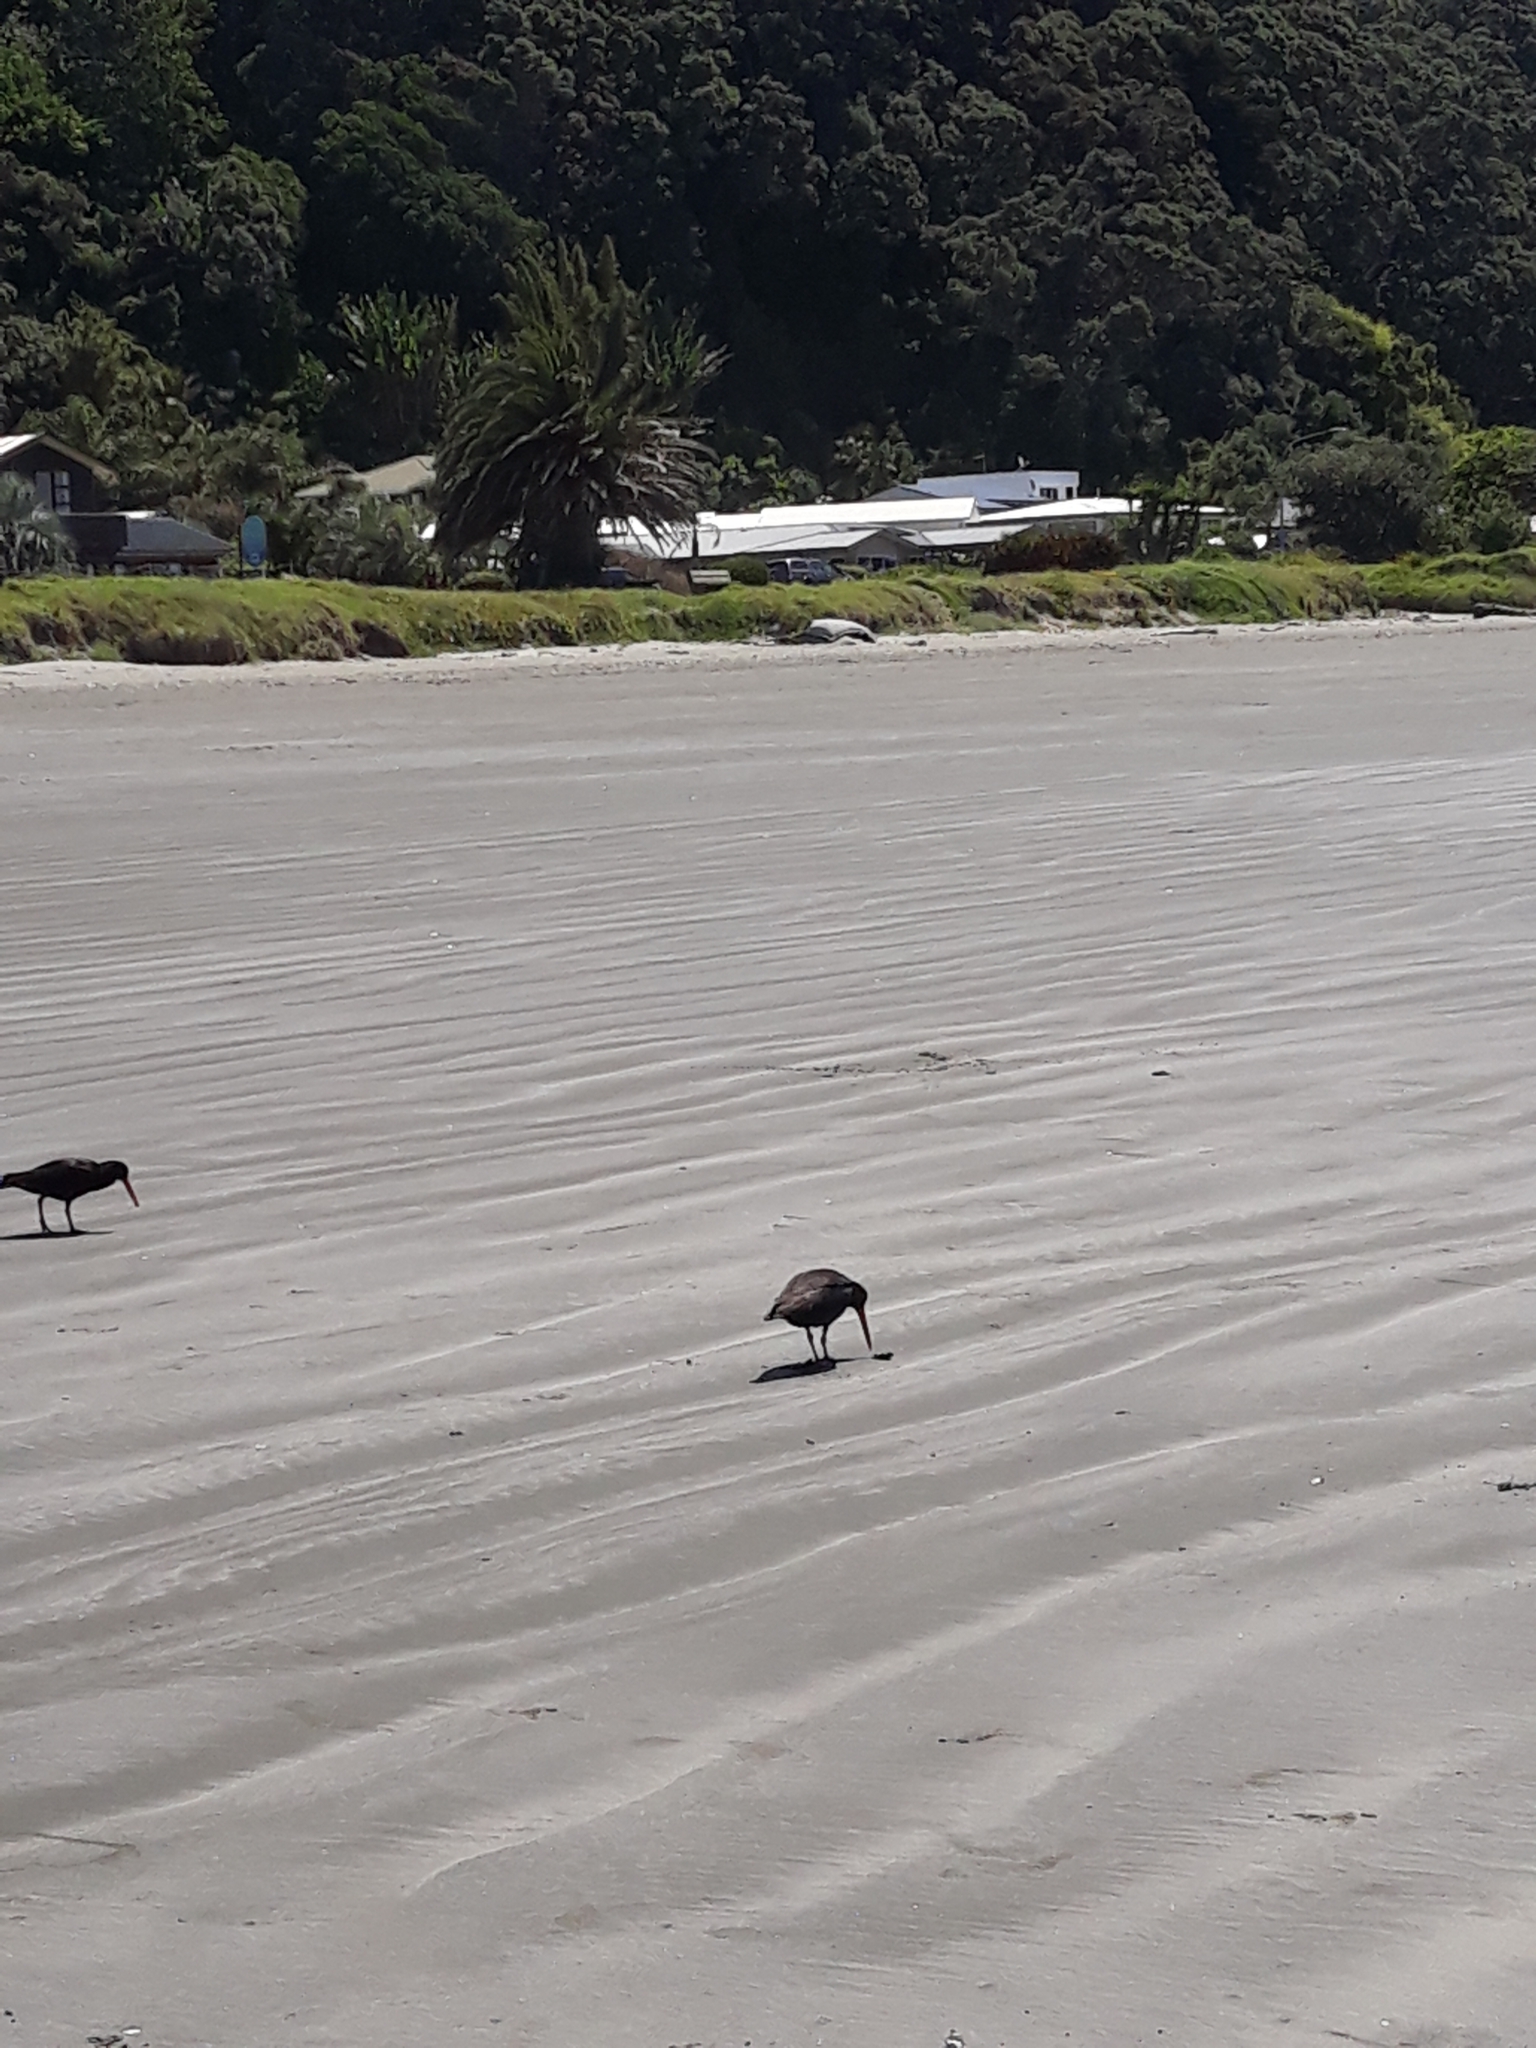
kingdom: Animalia
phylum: Chordata
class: Aves
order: Charadriiformes
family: Haematopodidae
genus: Haematopus
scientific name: Haematopus unicolor
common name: Variable oystercatcher
